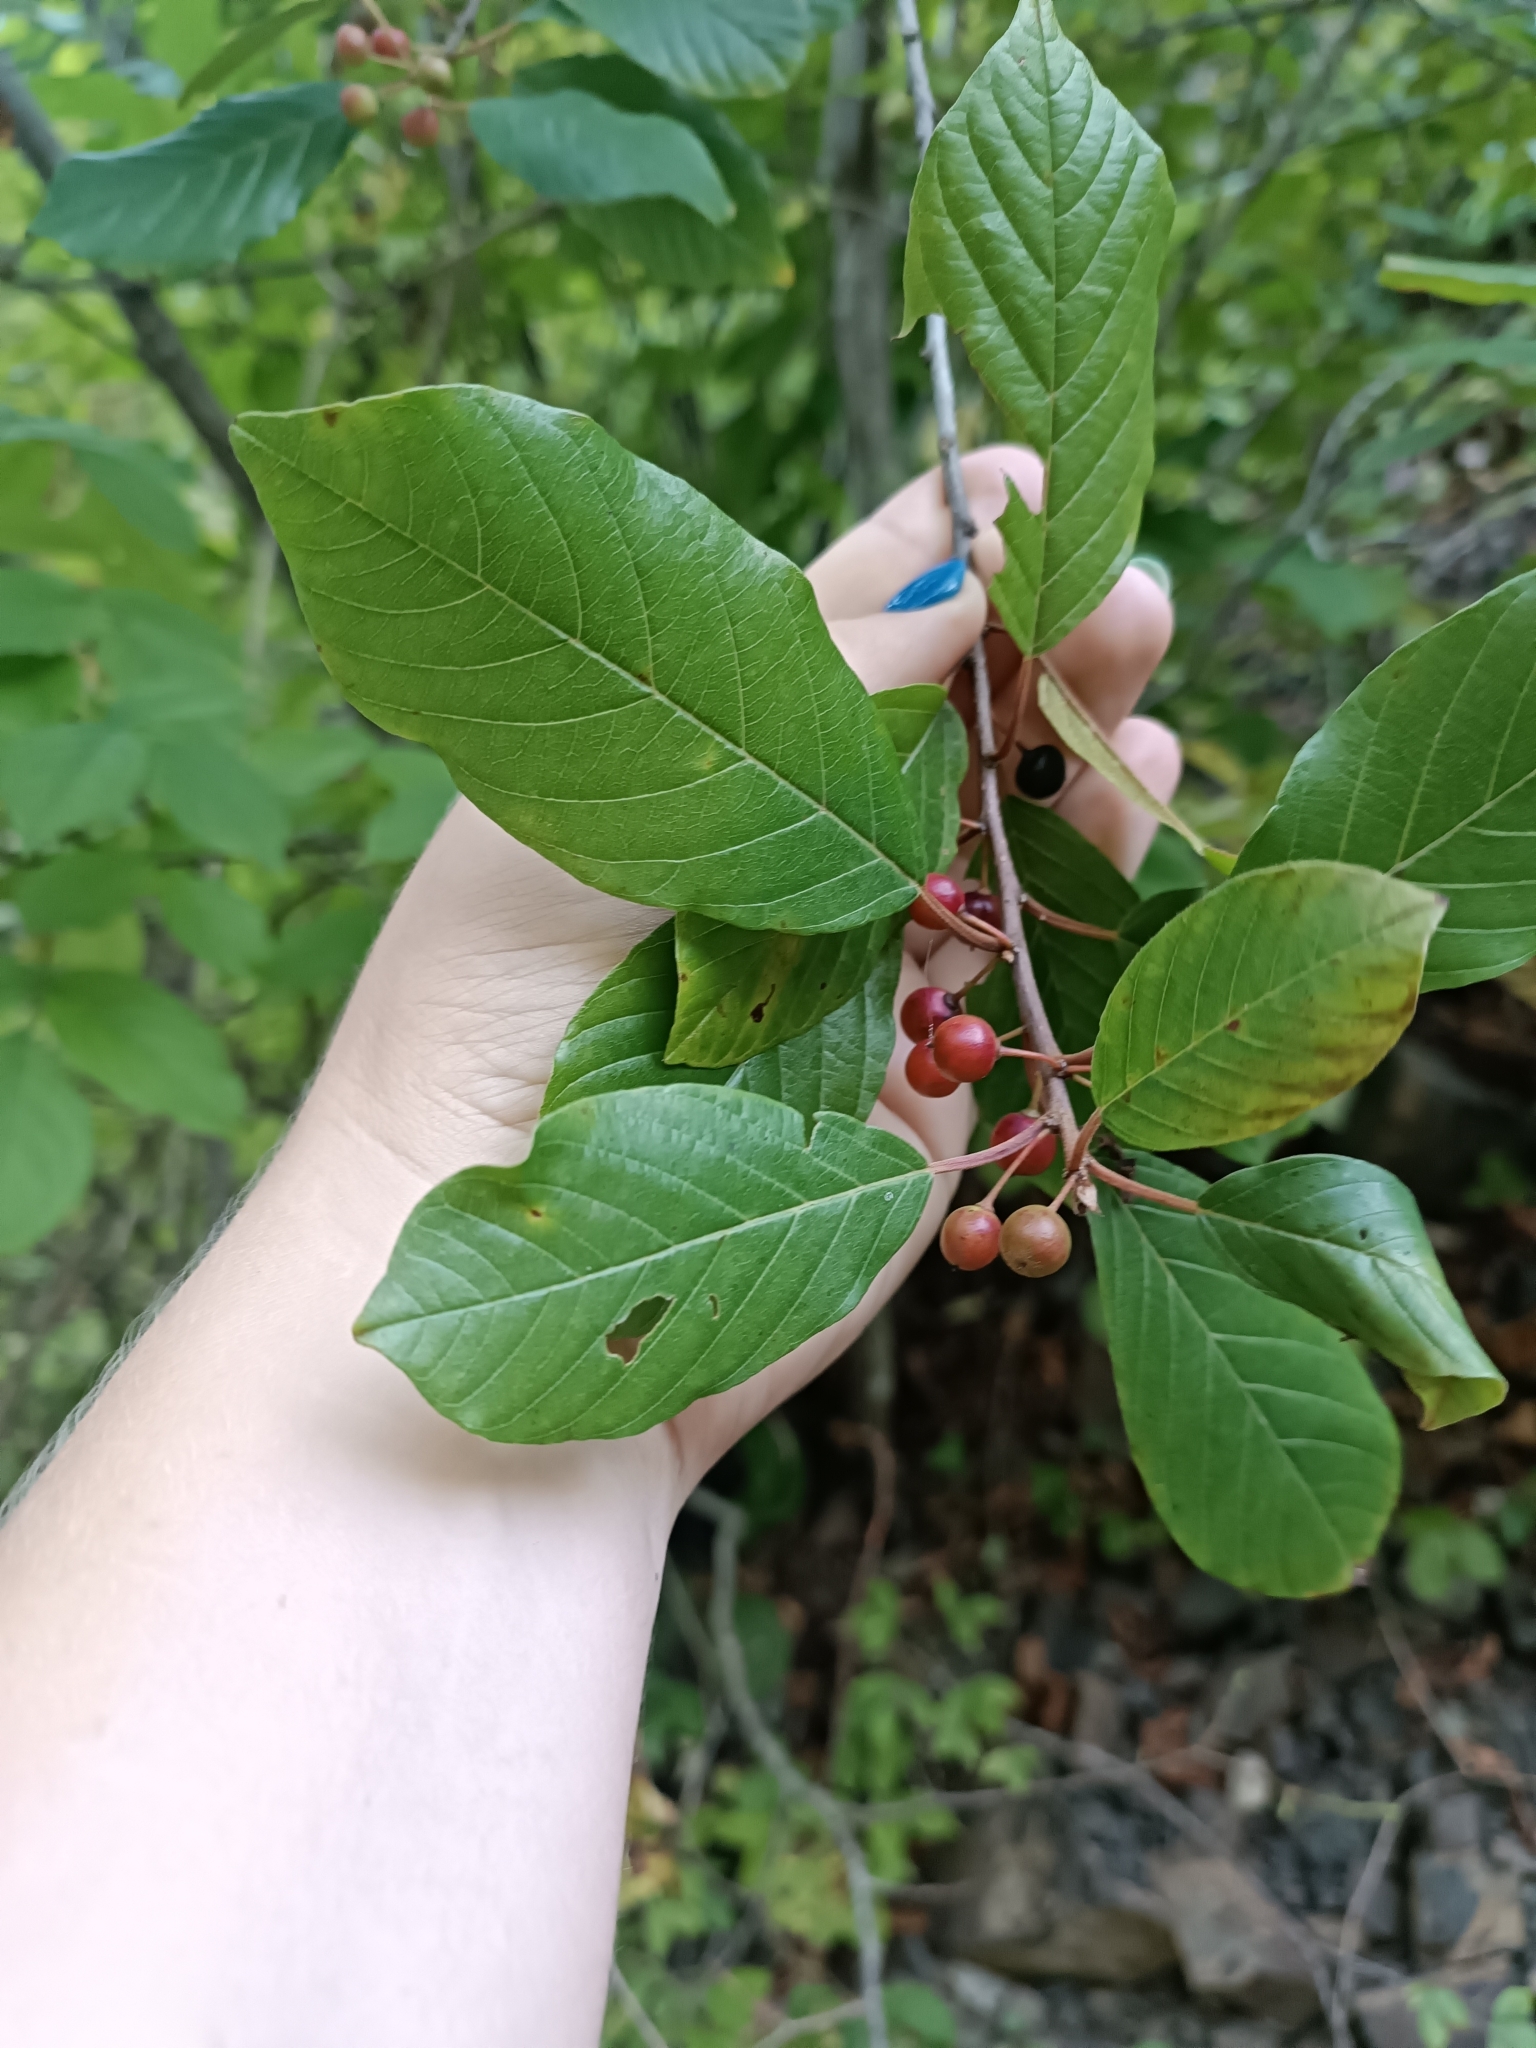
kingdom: Plantae
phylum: Tracheophyta
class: Magnoliopsida
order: Rosales
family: Rhamnaceae
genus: Frangula
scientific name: Frangula alnus
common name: Alder buckthorn
